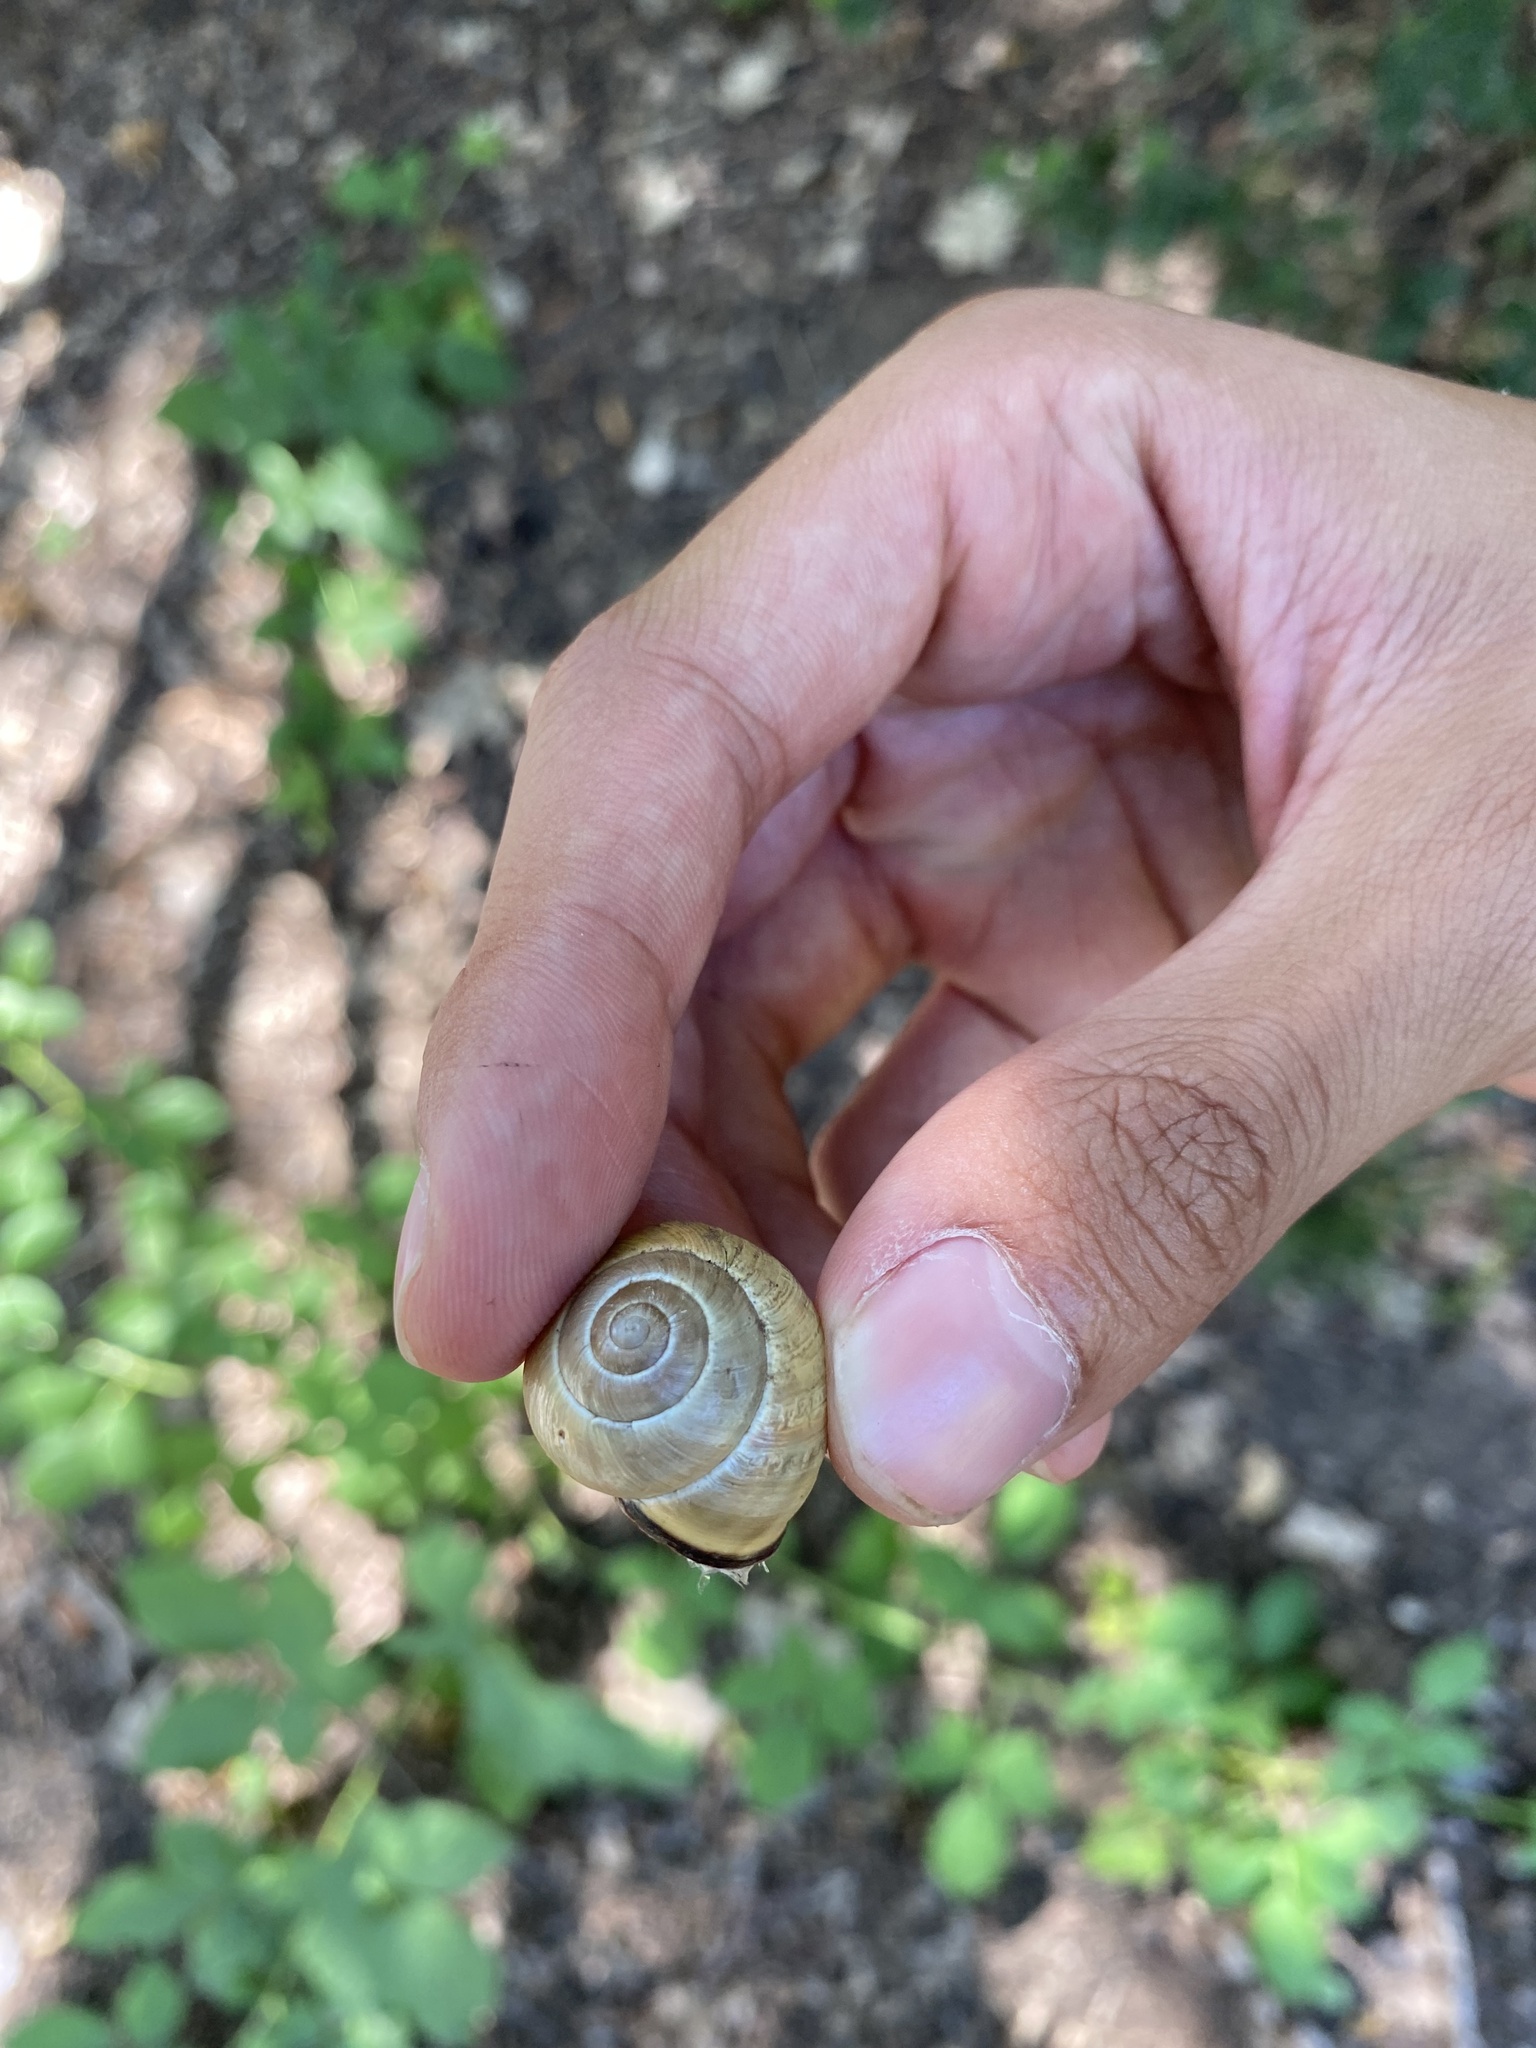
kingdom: Animalia
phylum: Mollusca
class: Gastropoda
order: Stylommatophora
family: Helicidae
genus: Cepaea
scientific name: Cepaea nemoralis
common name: Grovesnail
